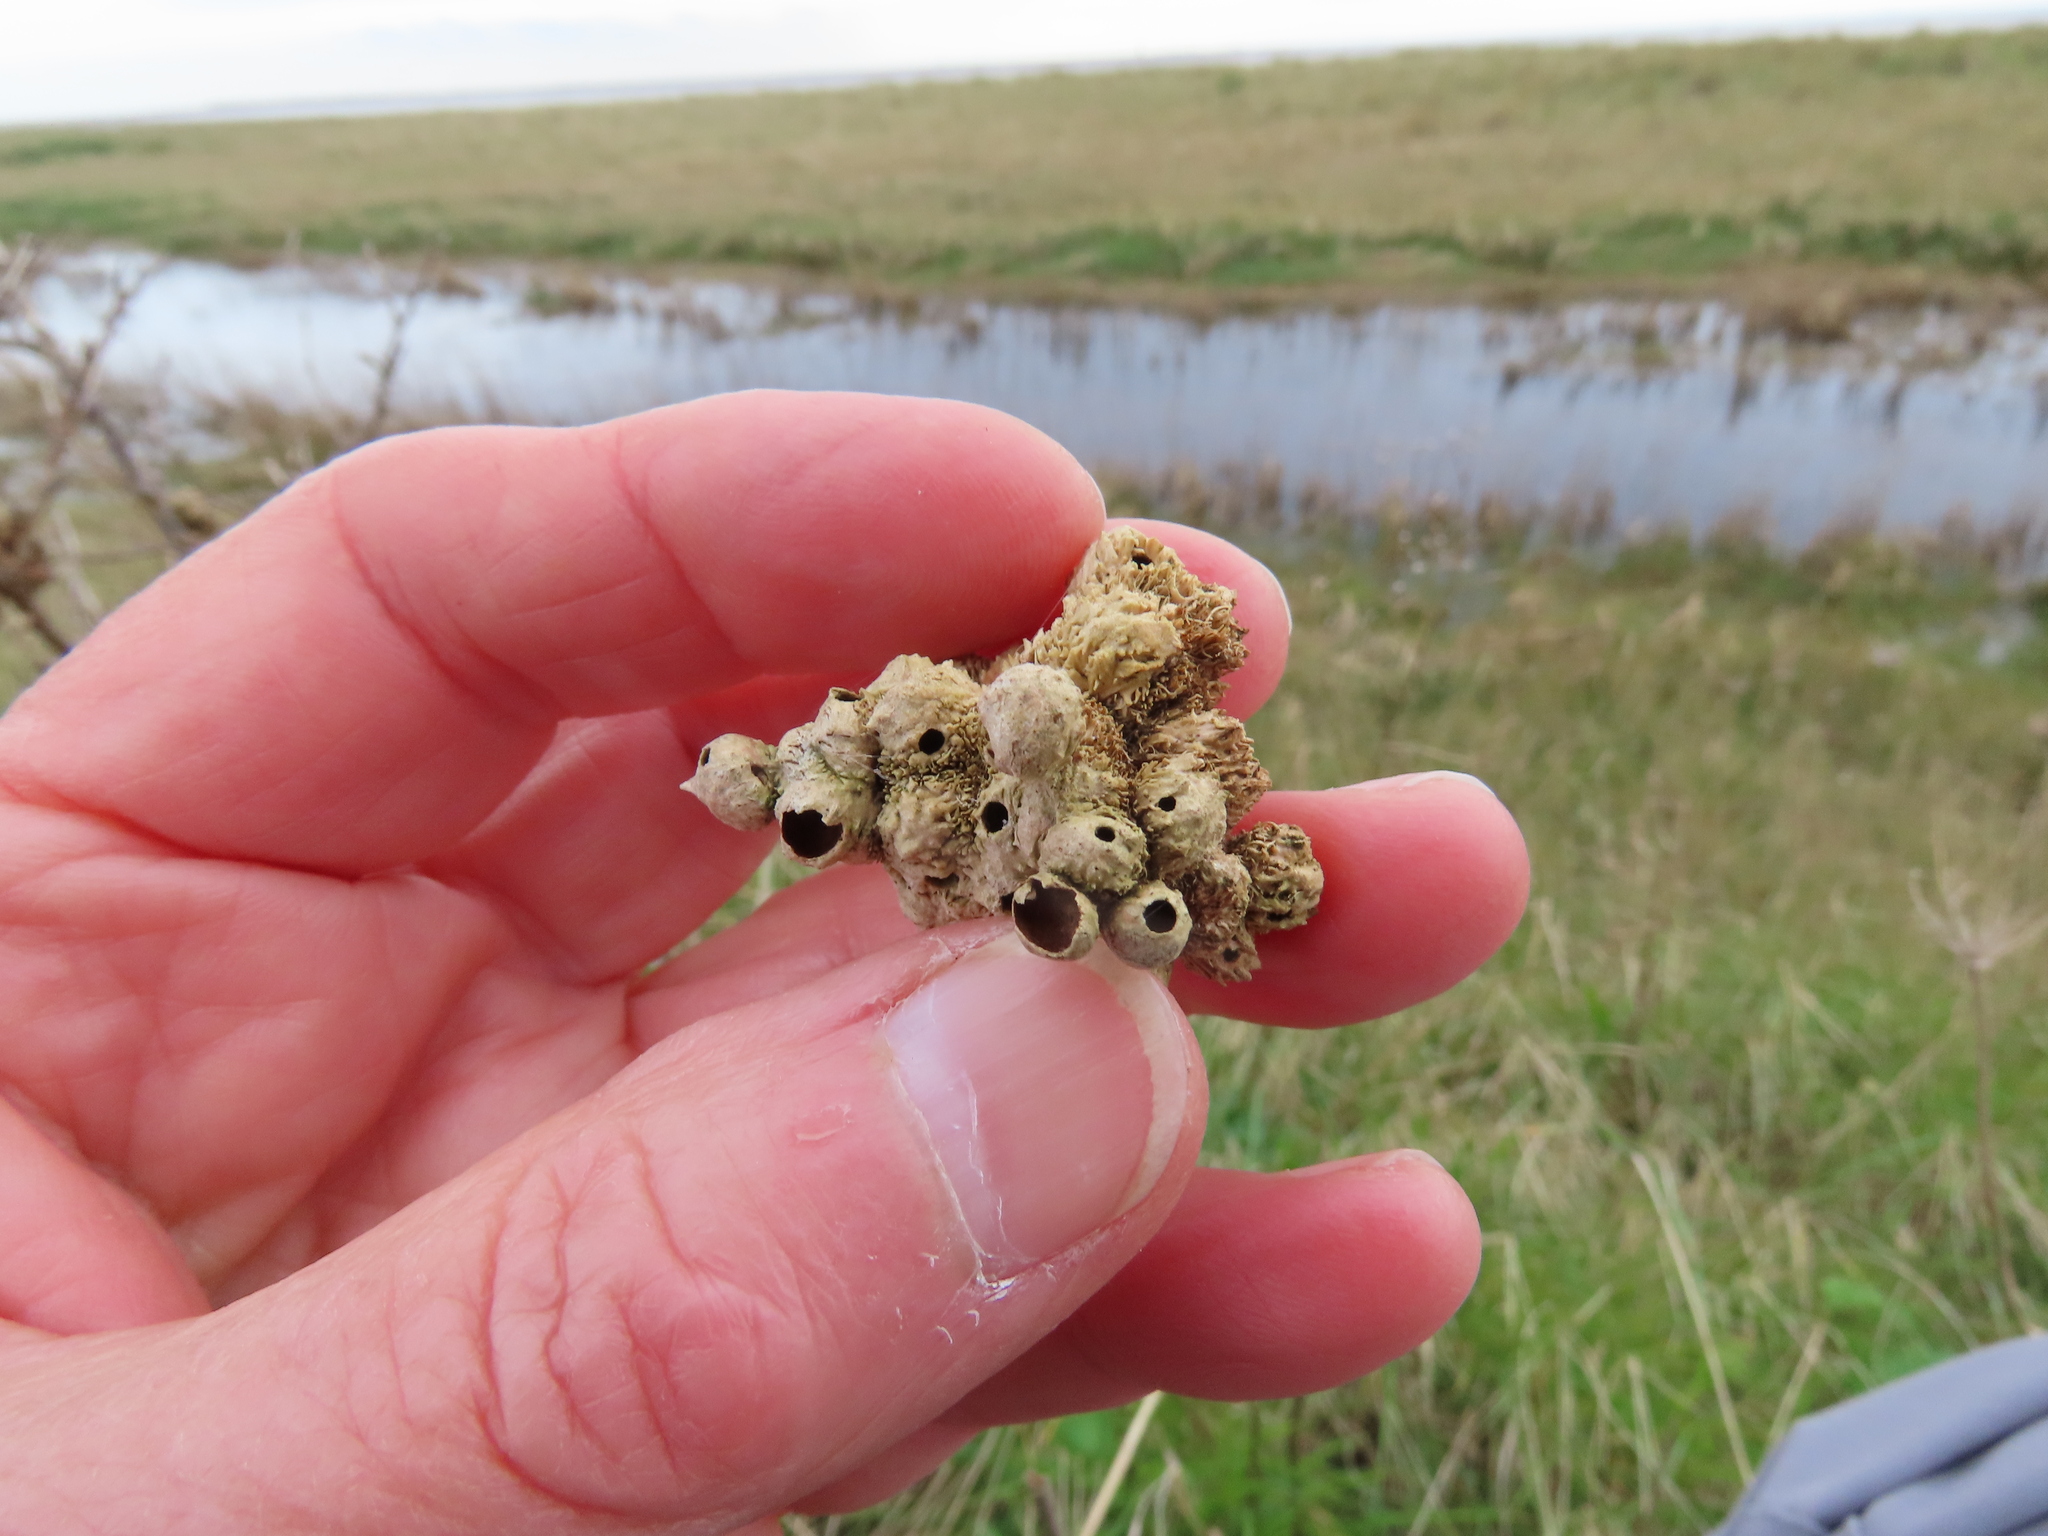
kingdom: Animalia
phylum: Arthropoda
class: Insecta
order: Hymenoptera
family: Cynipidae
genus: Diplolepis
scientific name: Diplolepis rosae
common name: Bedeguar gall
